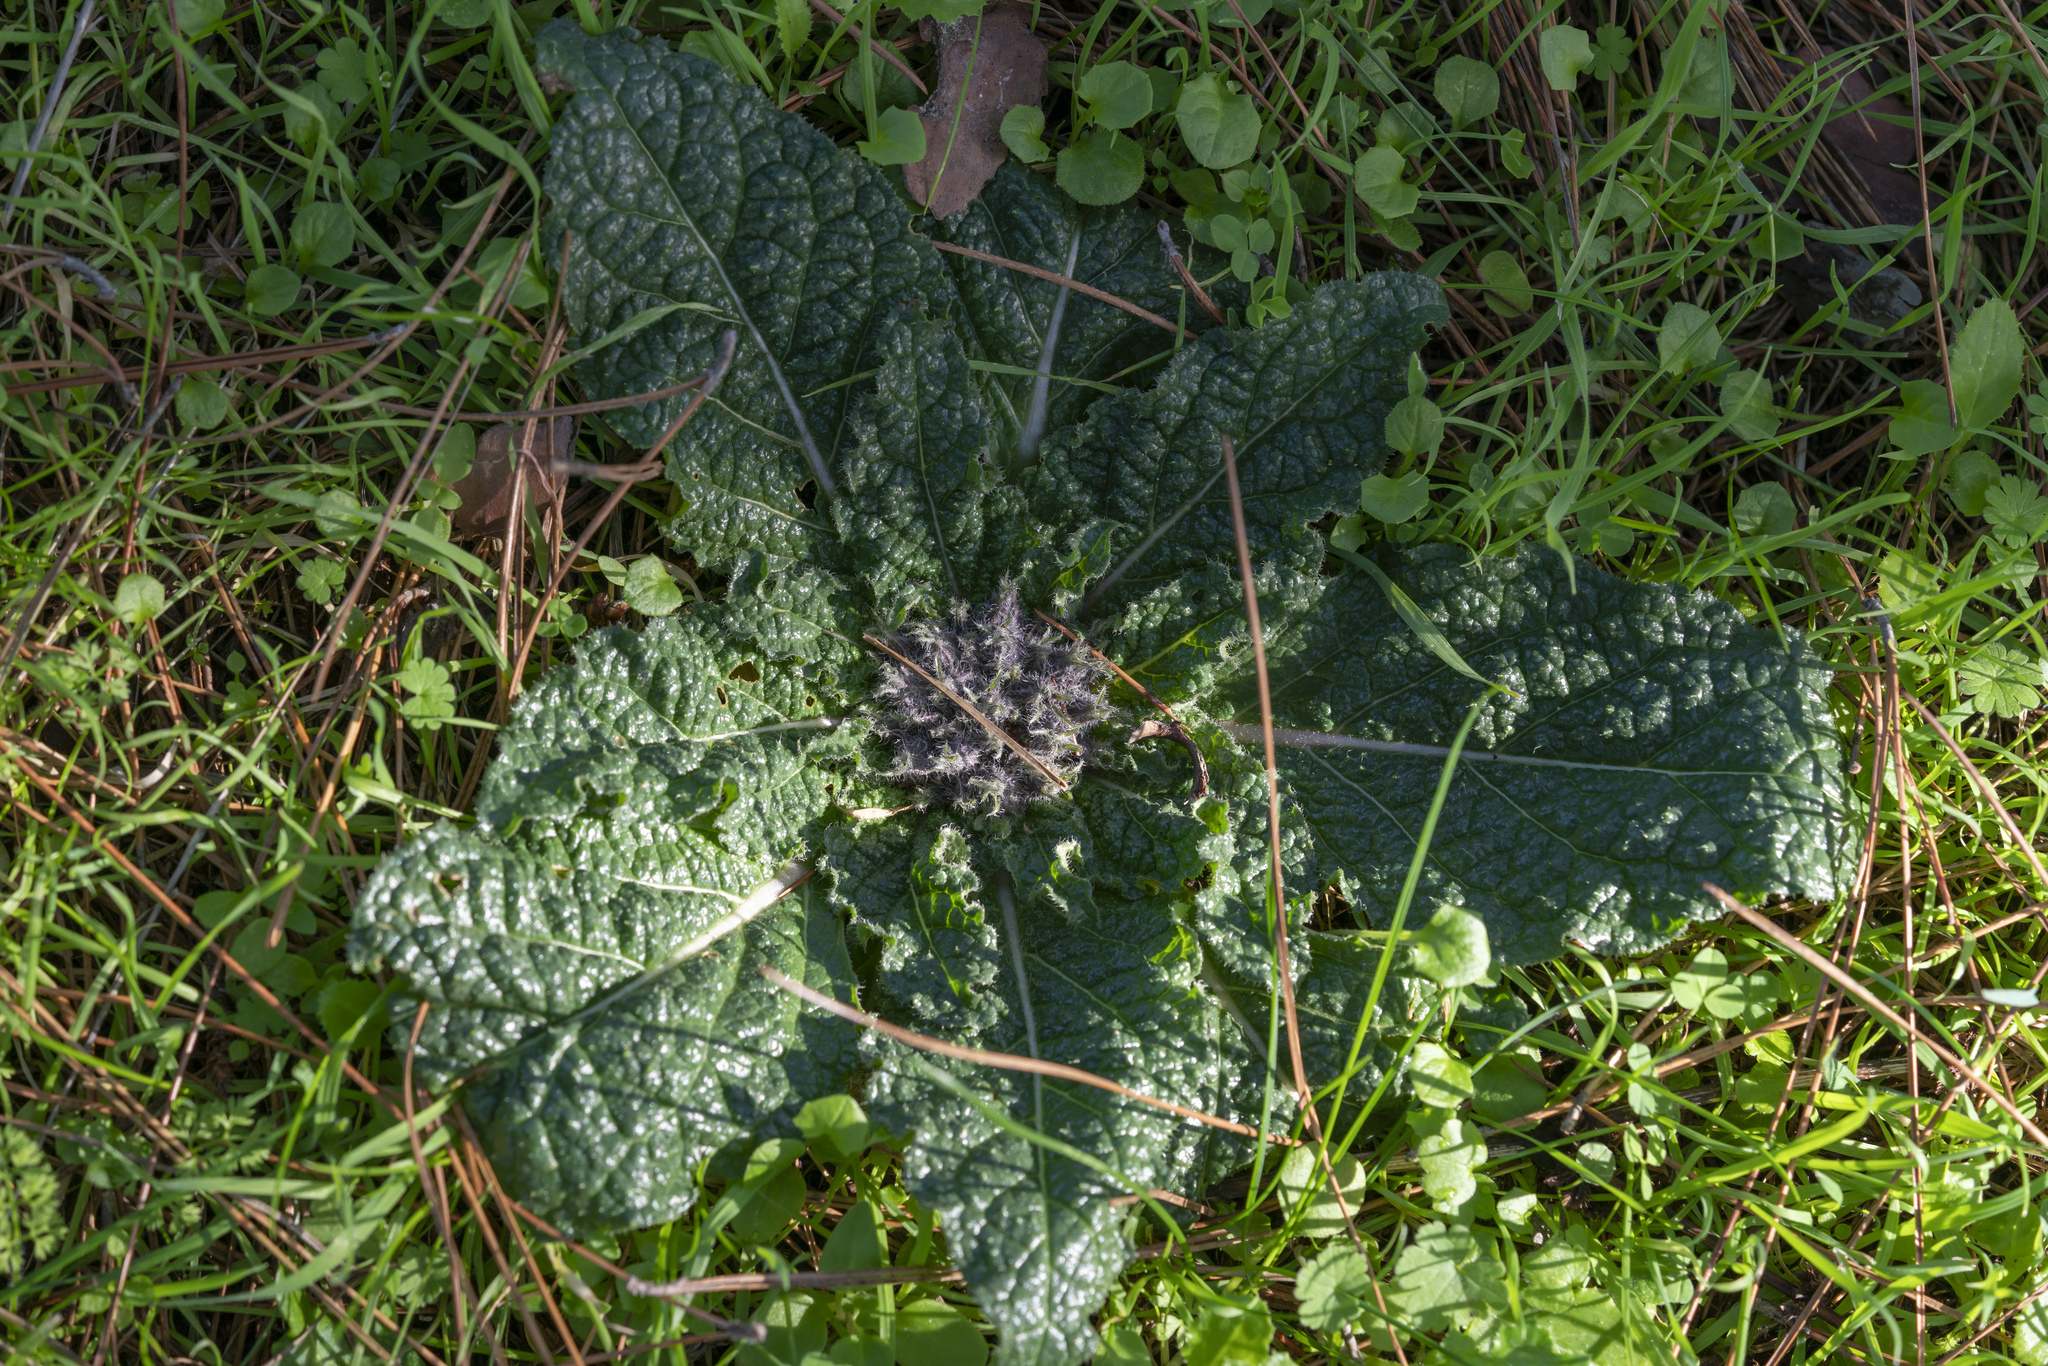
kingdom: Plantae
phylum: Tracheophyta
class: Magnoliopsida
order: Solanales
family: Solanaceae
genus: Mandragora
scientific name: Mandragora officinarum
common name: Mandrake
